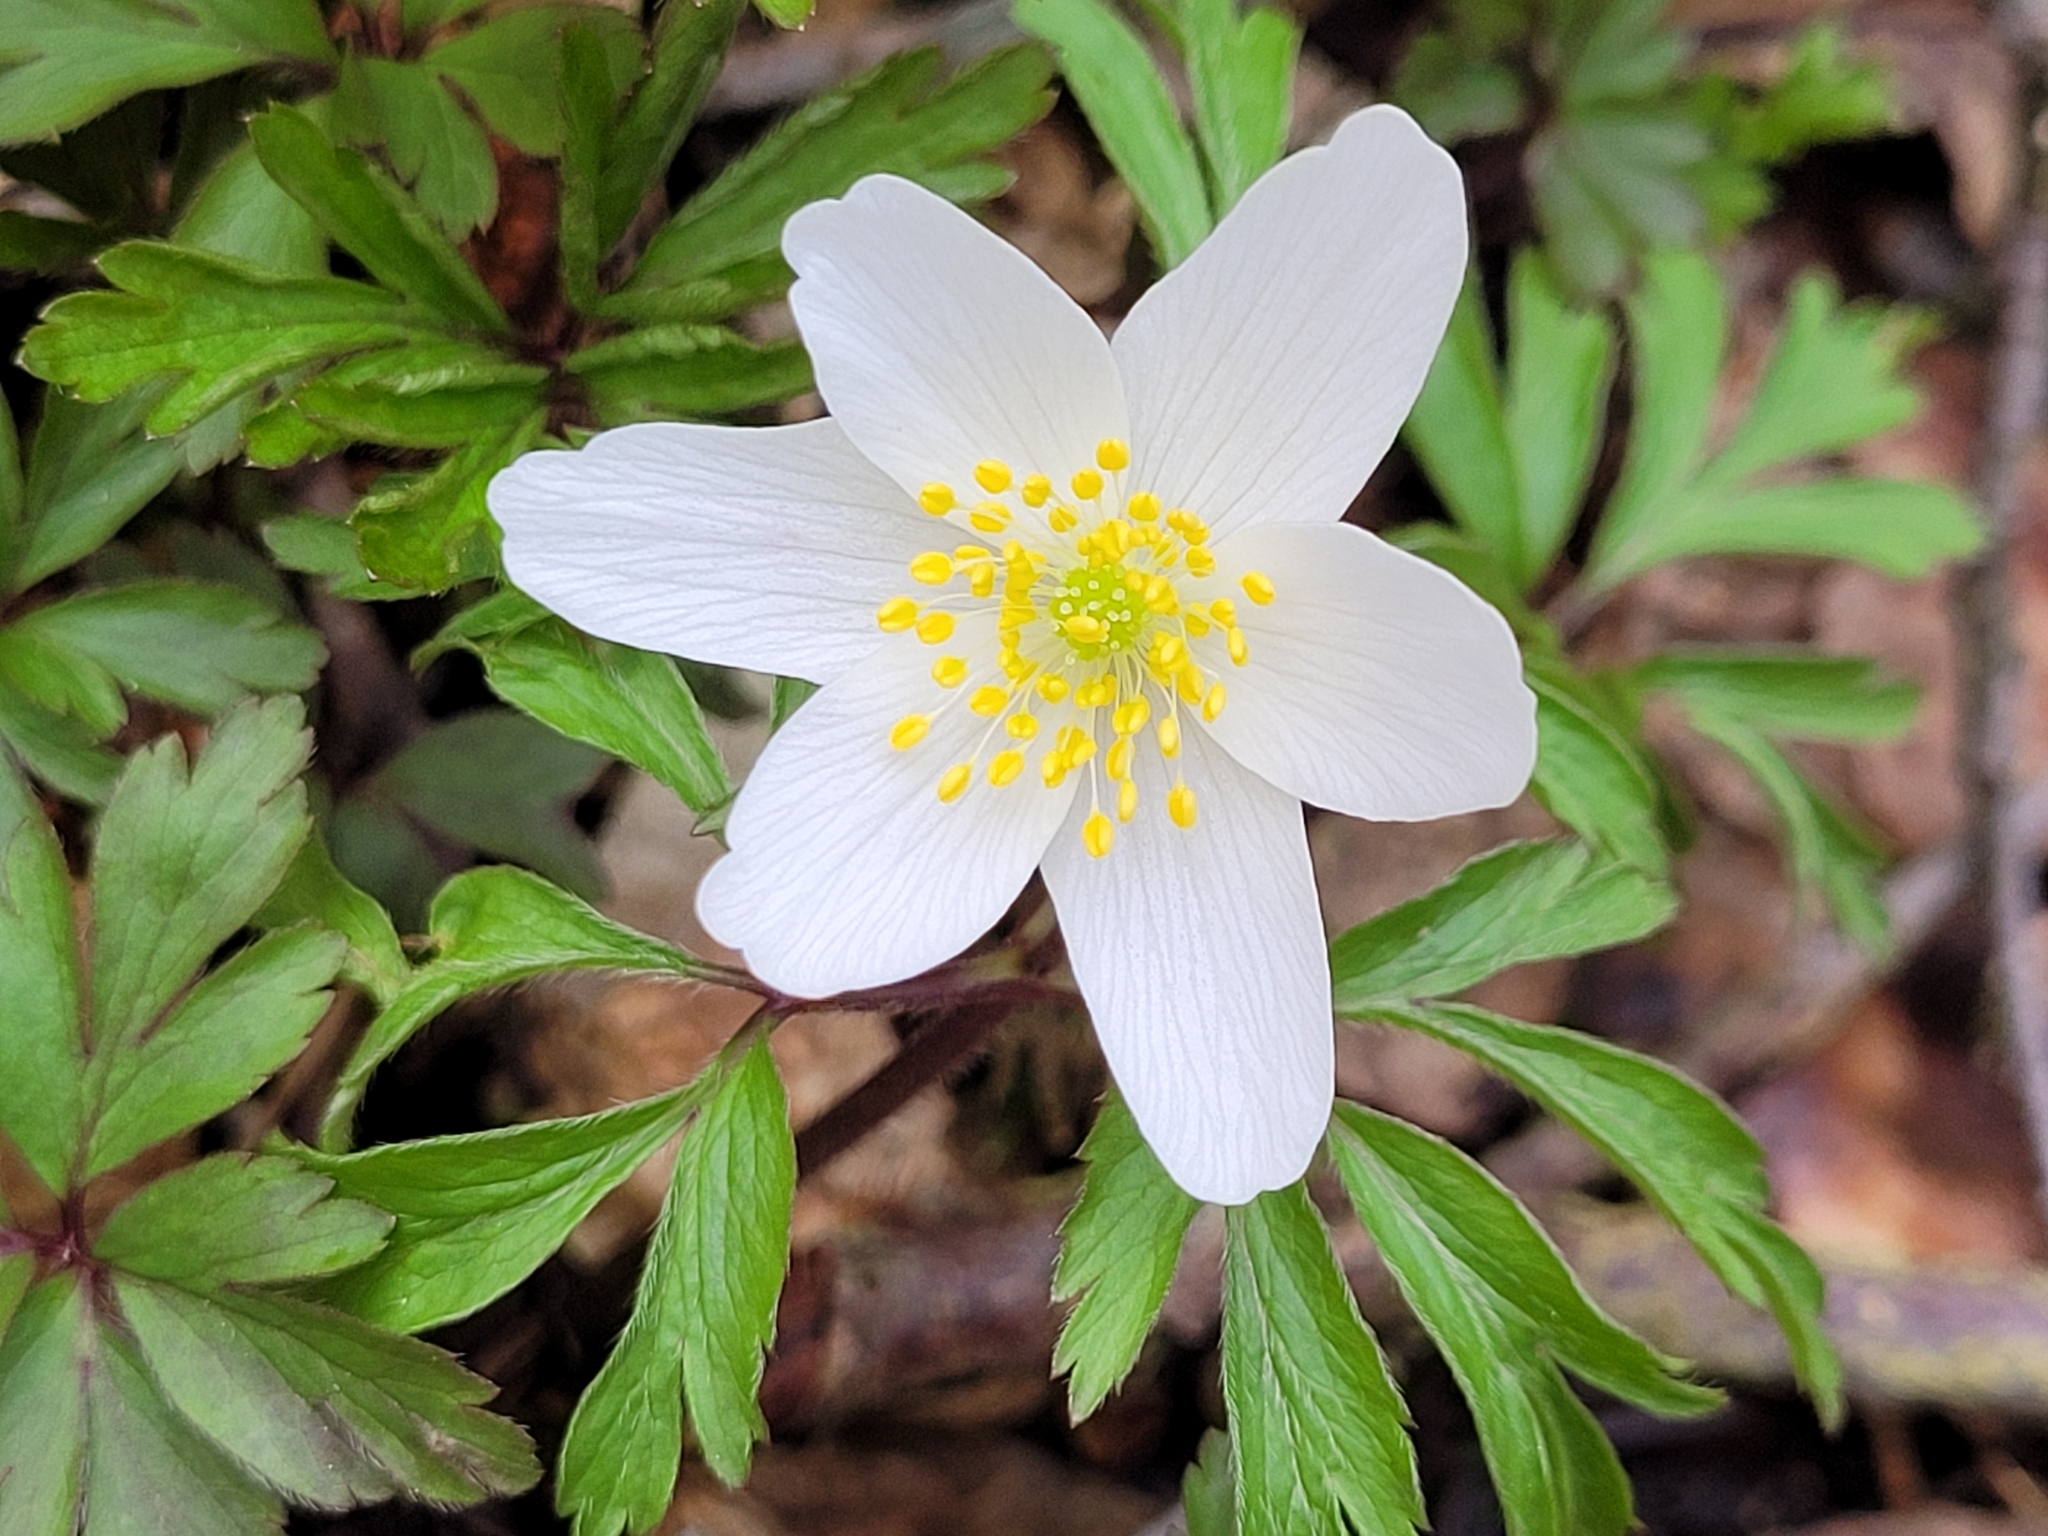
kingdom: Plantae
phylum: Tracheophyta
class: Magnoliopsida
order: Ranunculales
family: Ranunculaceae
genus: Anemone
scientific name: Anemone nemorosa
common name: Wood anemone
